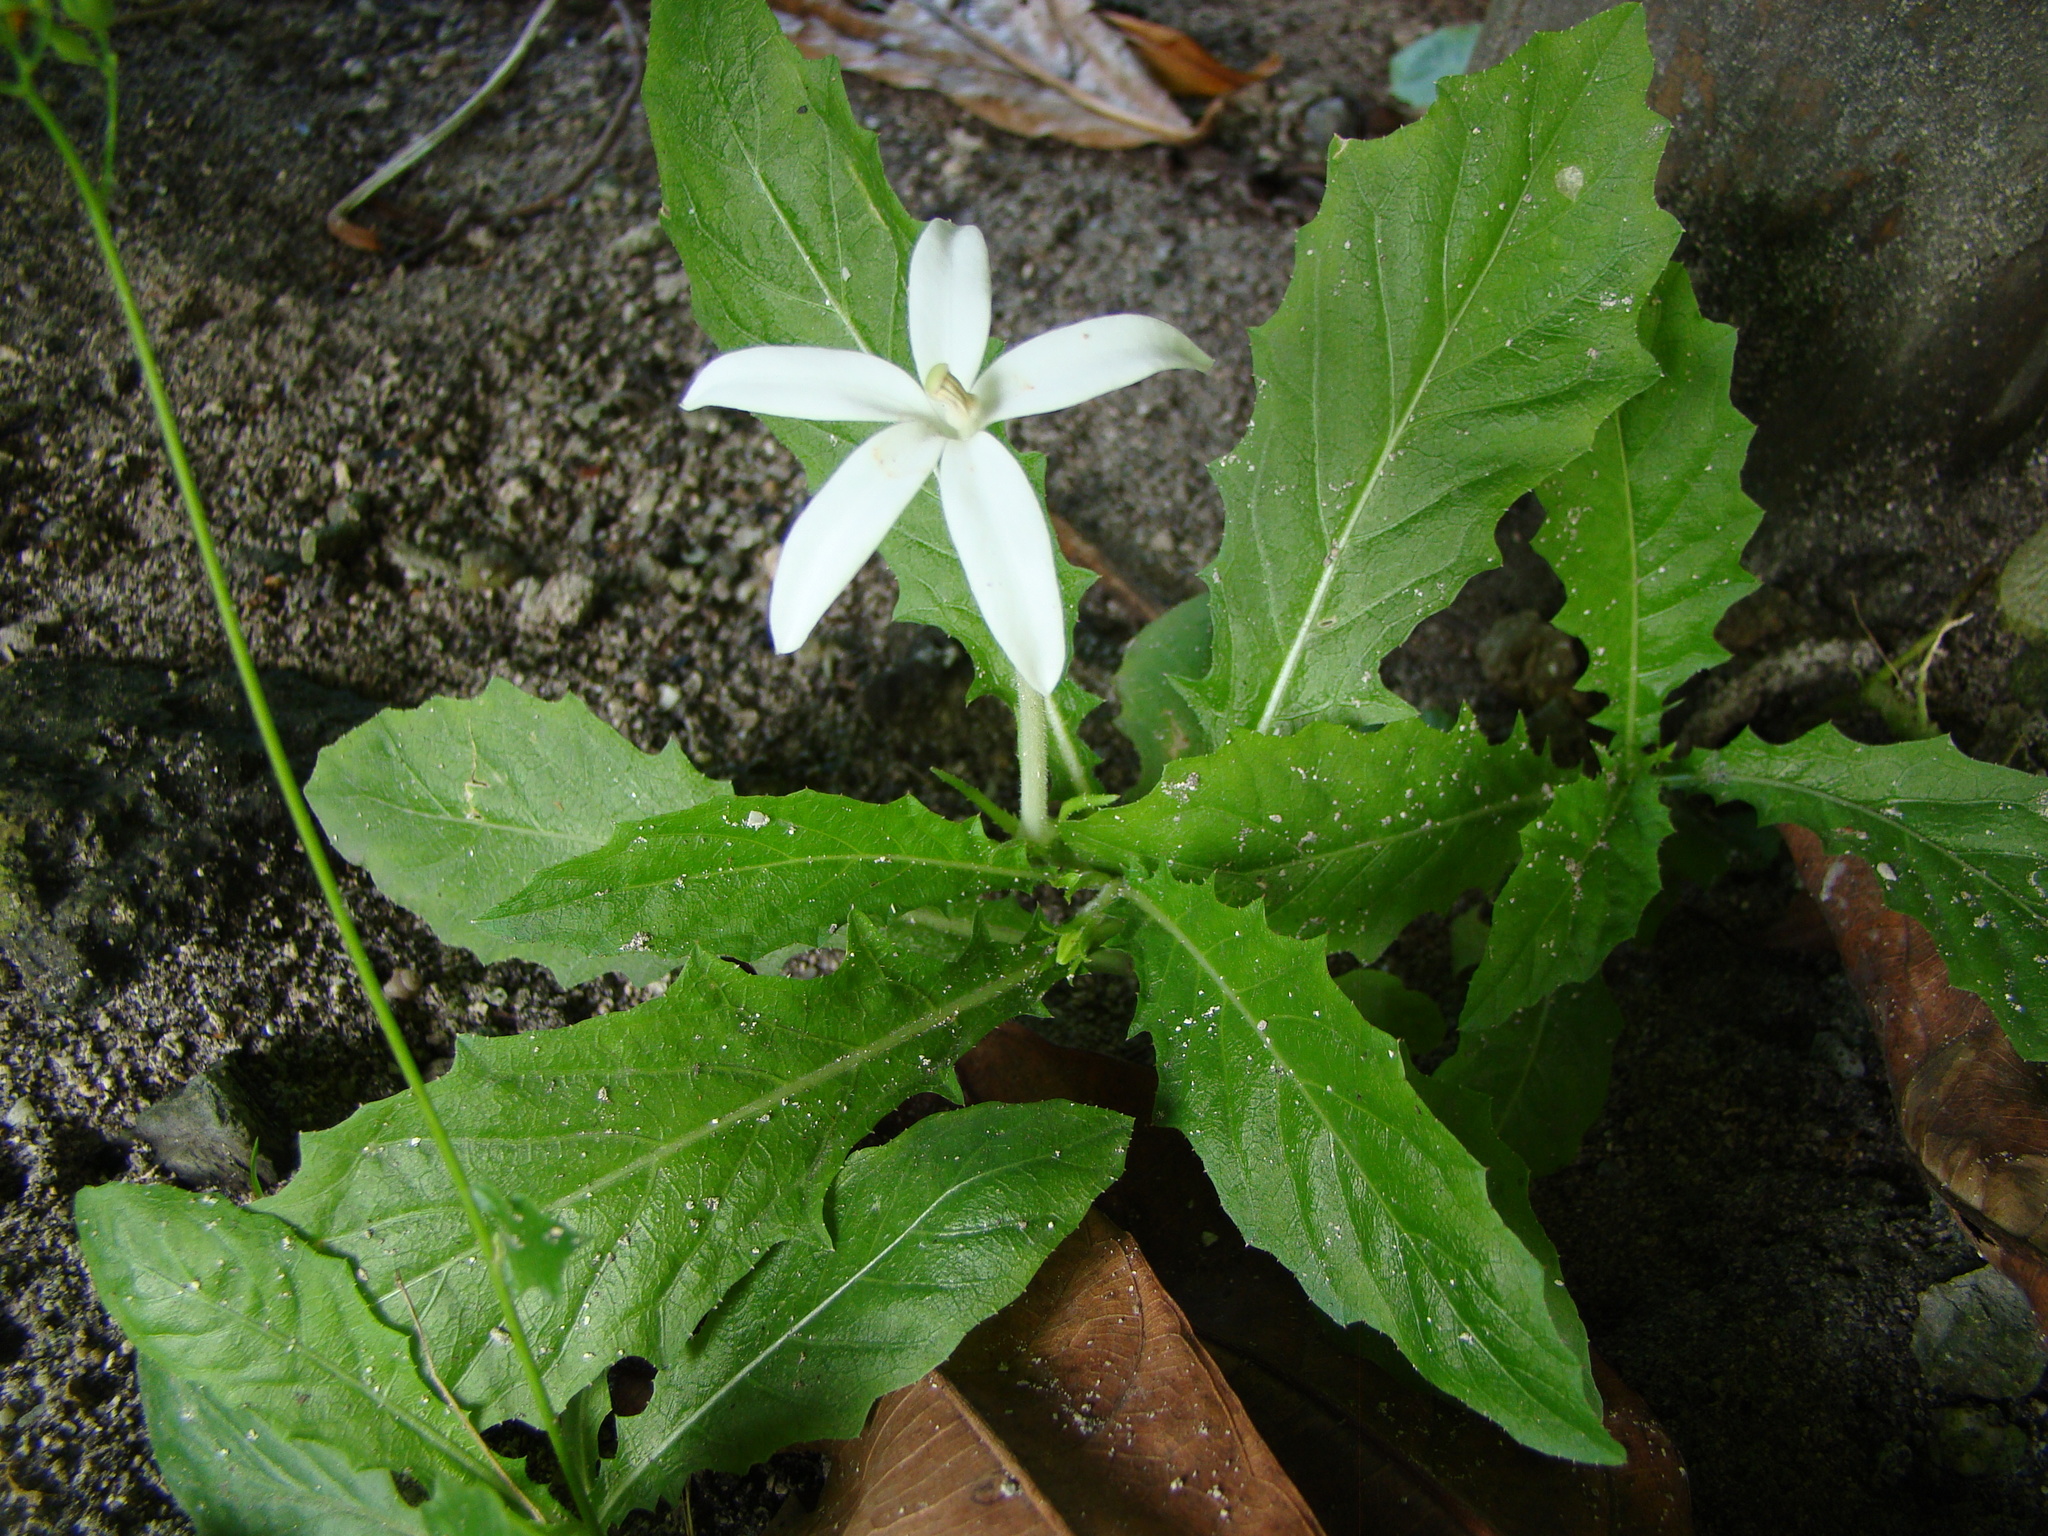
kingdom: Plantae
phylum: Tracheophyta
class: Magnoliopsida
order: Asterales
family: Campanulaceae
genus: Hippobroma
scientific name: Hippobroma longiflora
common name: Madamfate
